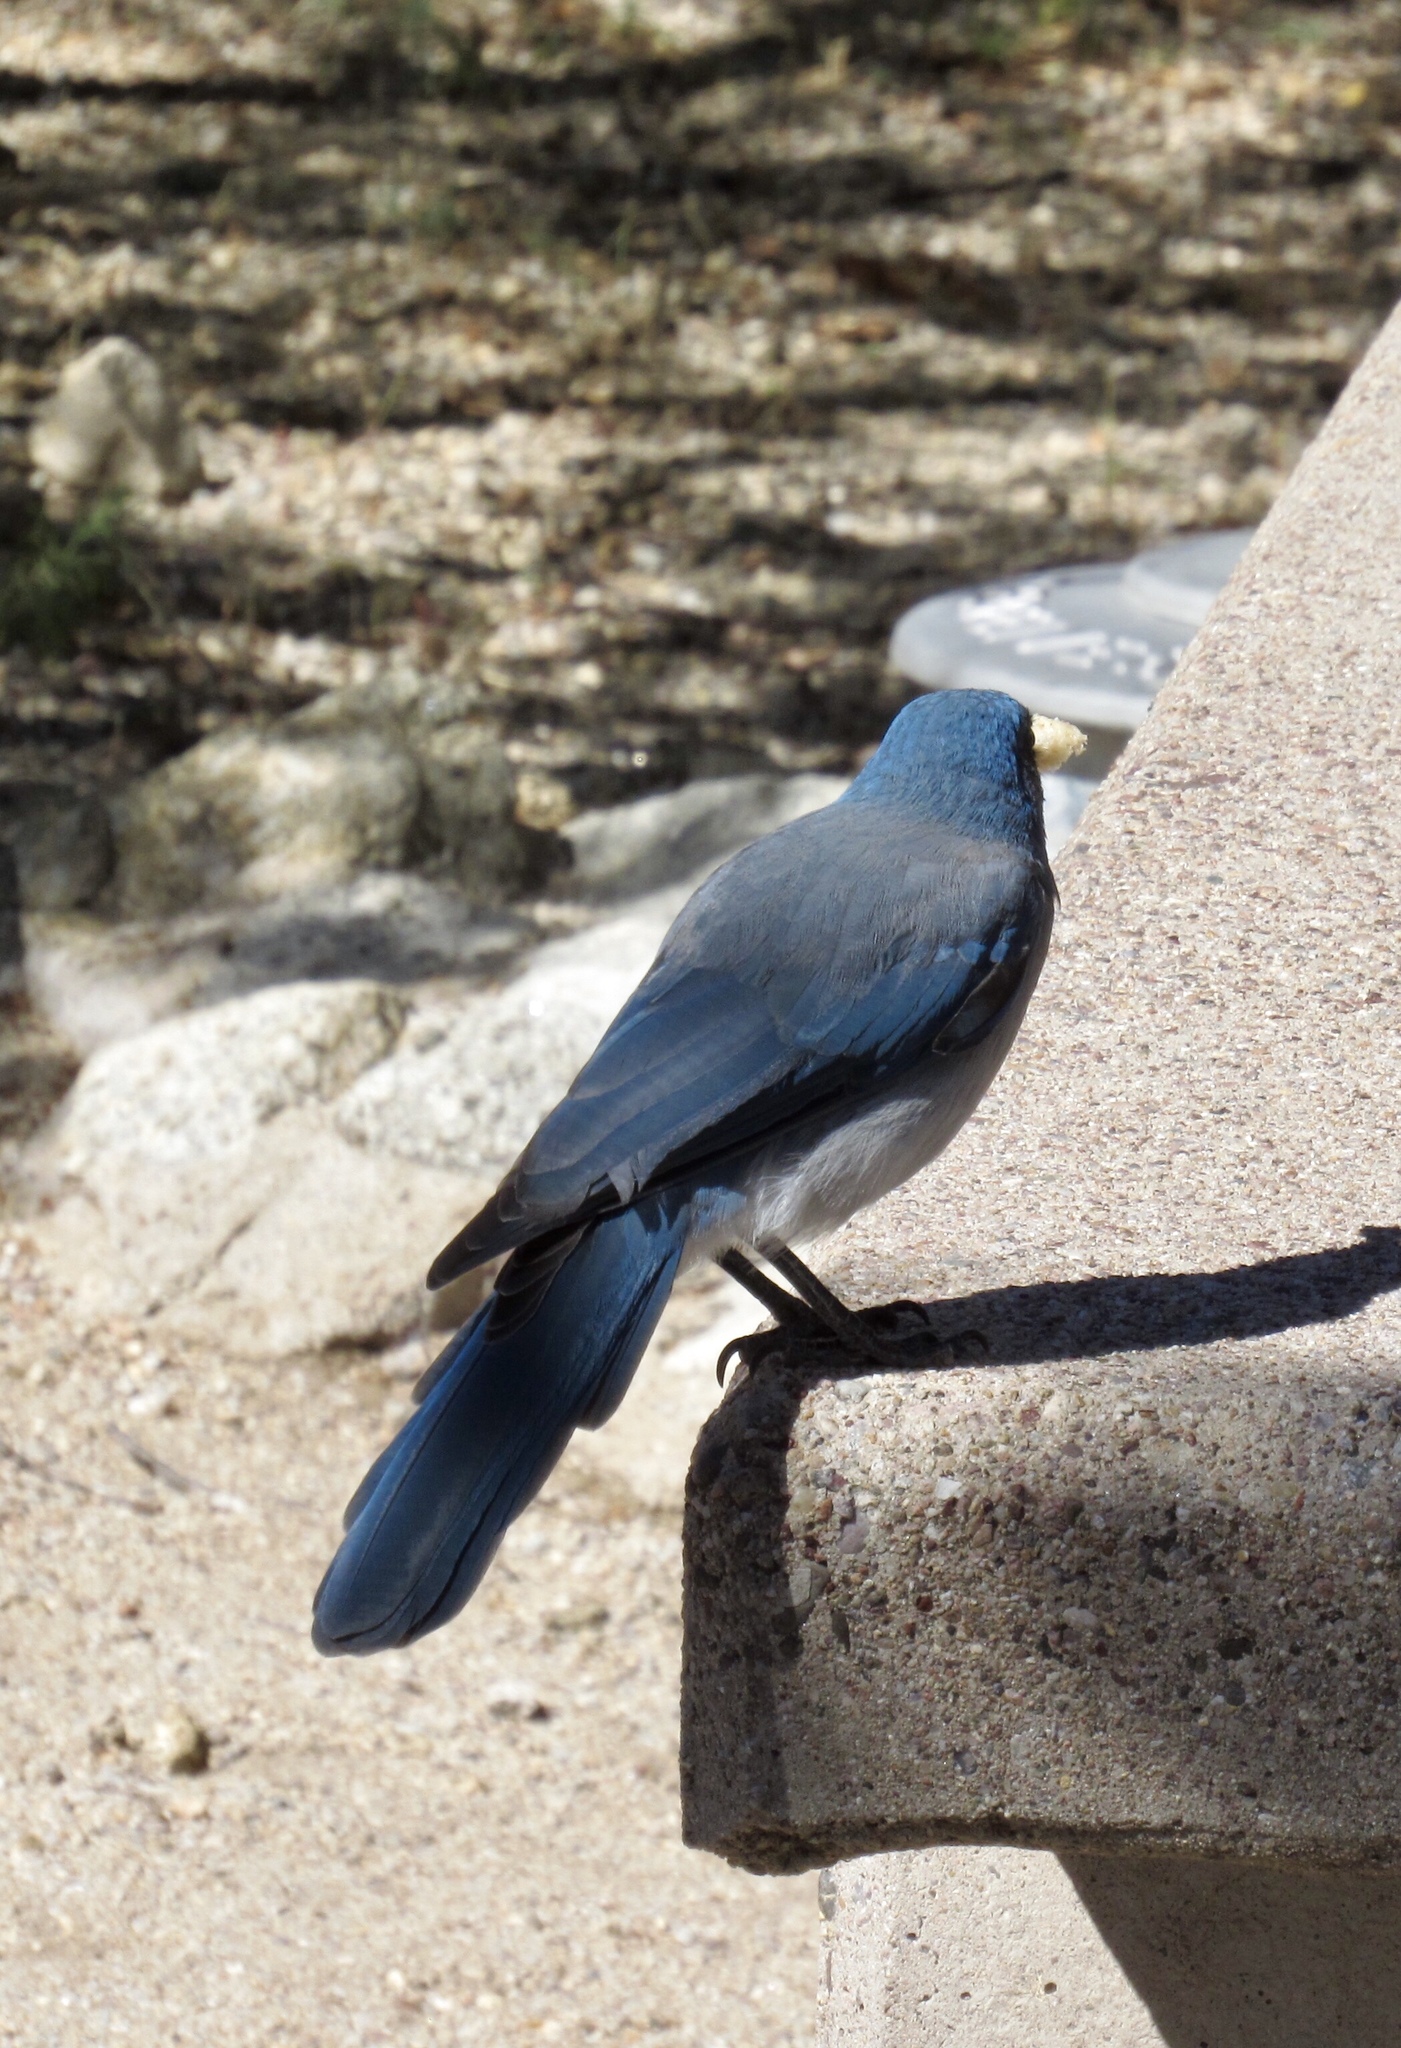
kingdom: Animalia
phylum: Chordata
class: Aves
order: Passeriformes
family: Corvidae
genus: Aphelocoma
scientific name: Aphelocoma wollweberi
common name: Mexican jay
